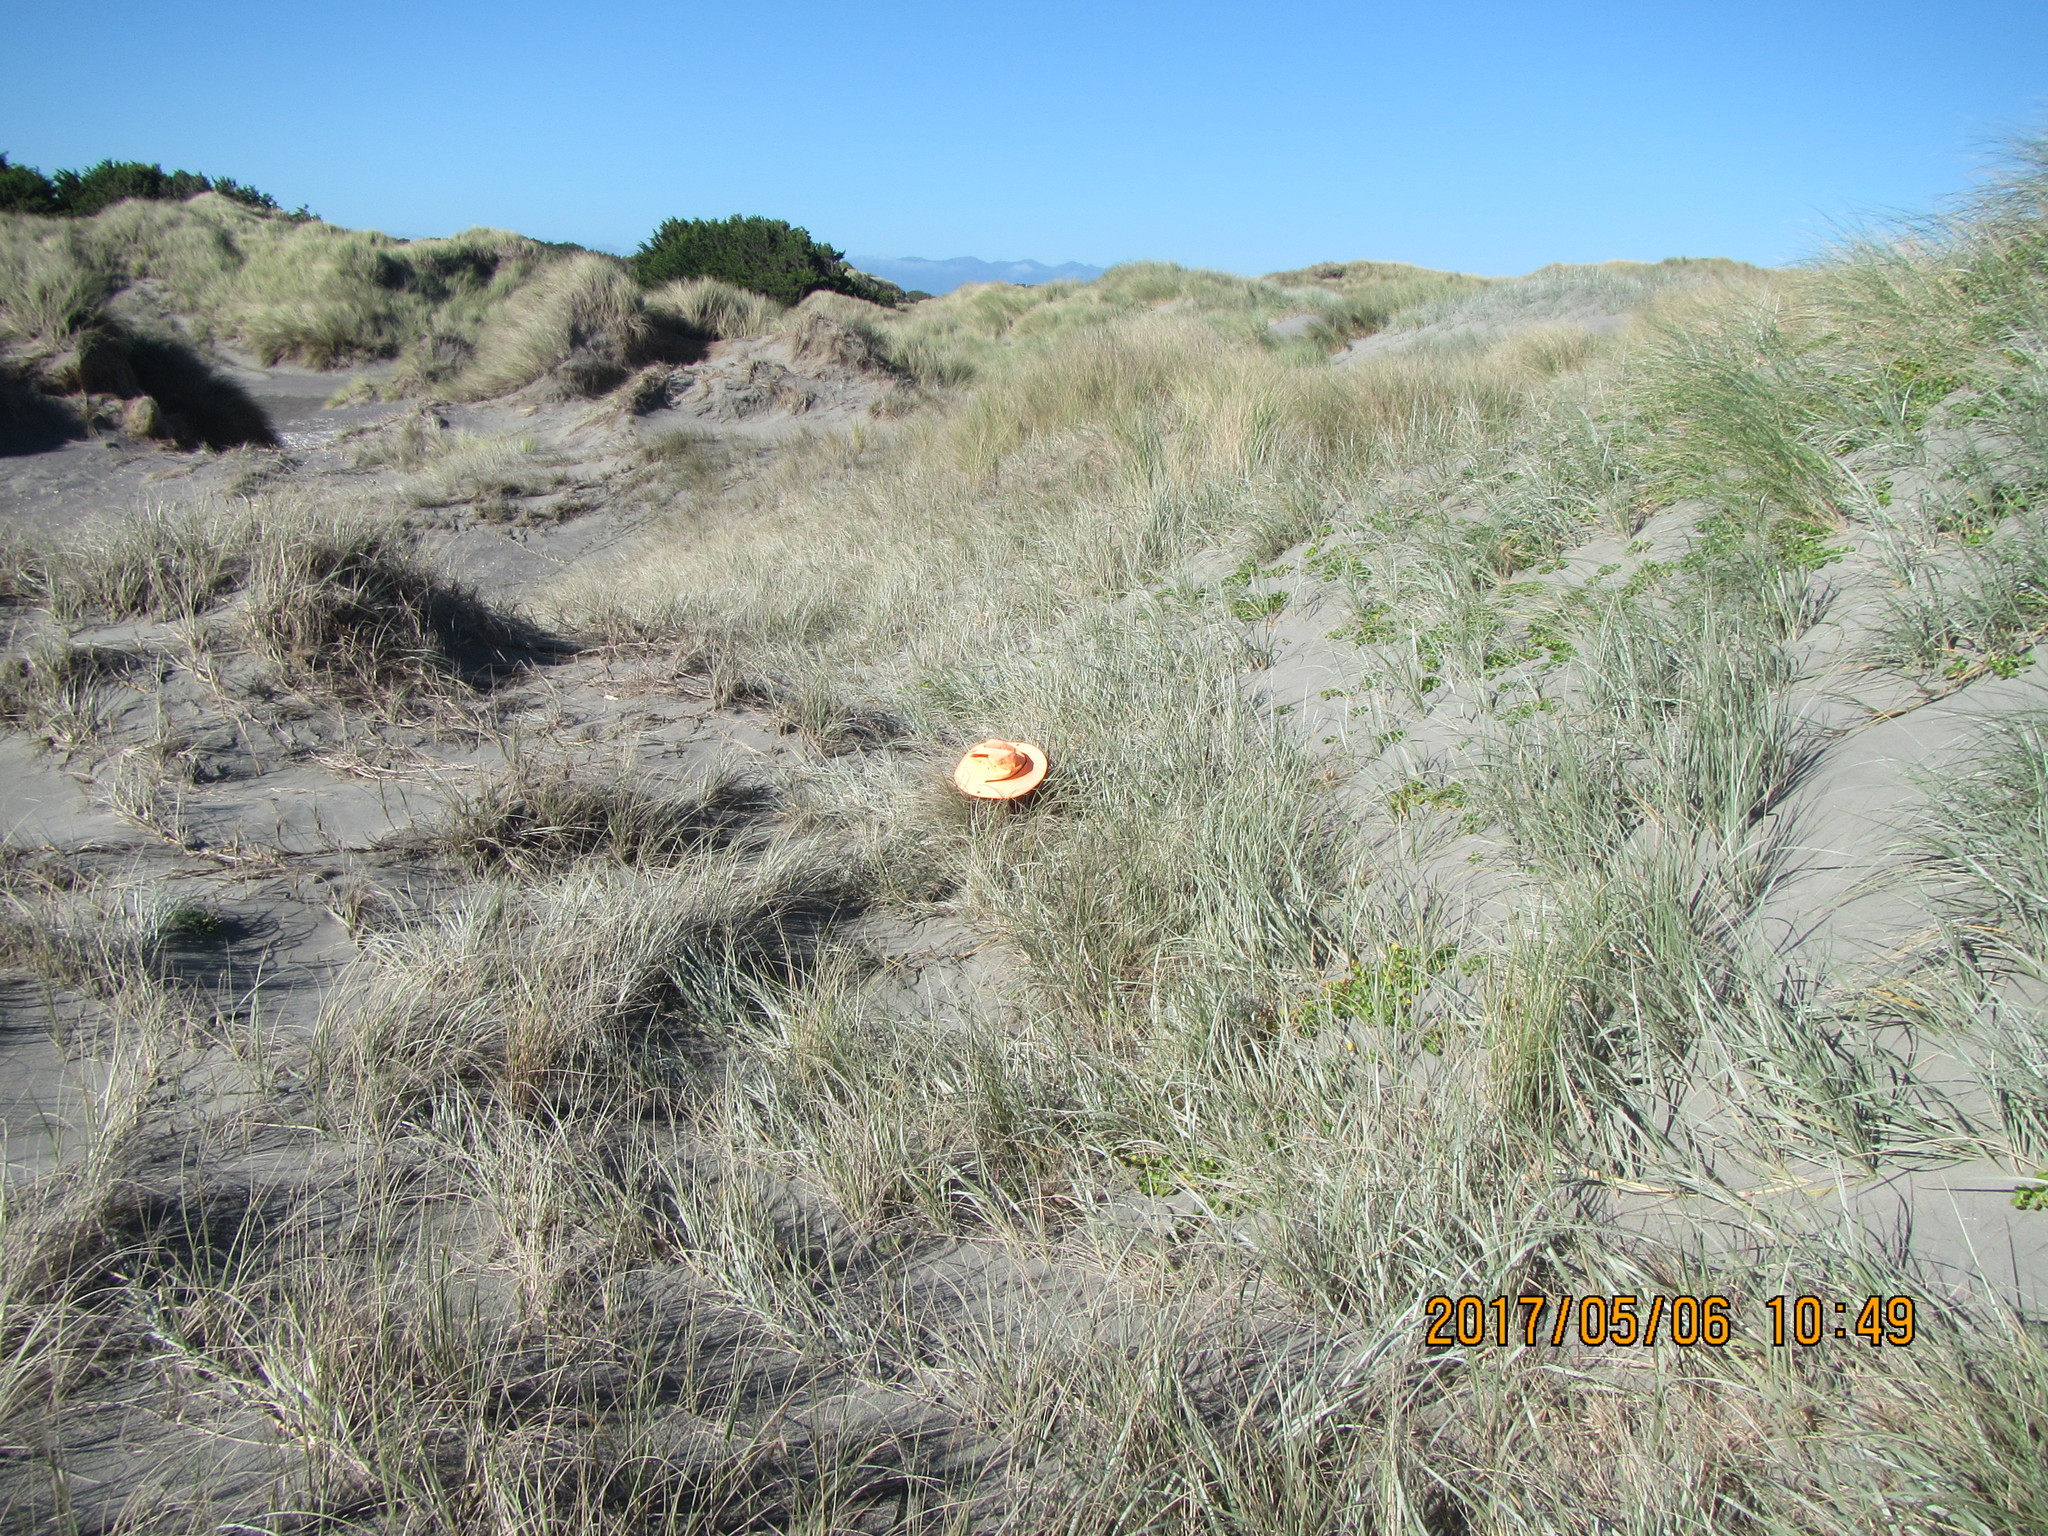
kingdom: Animalia
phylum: Arthropoda
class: Arachnida
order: Araneae
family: Theridiidae
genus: Latrodectus
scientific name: Latrodectus katipo
